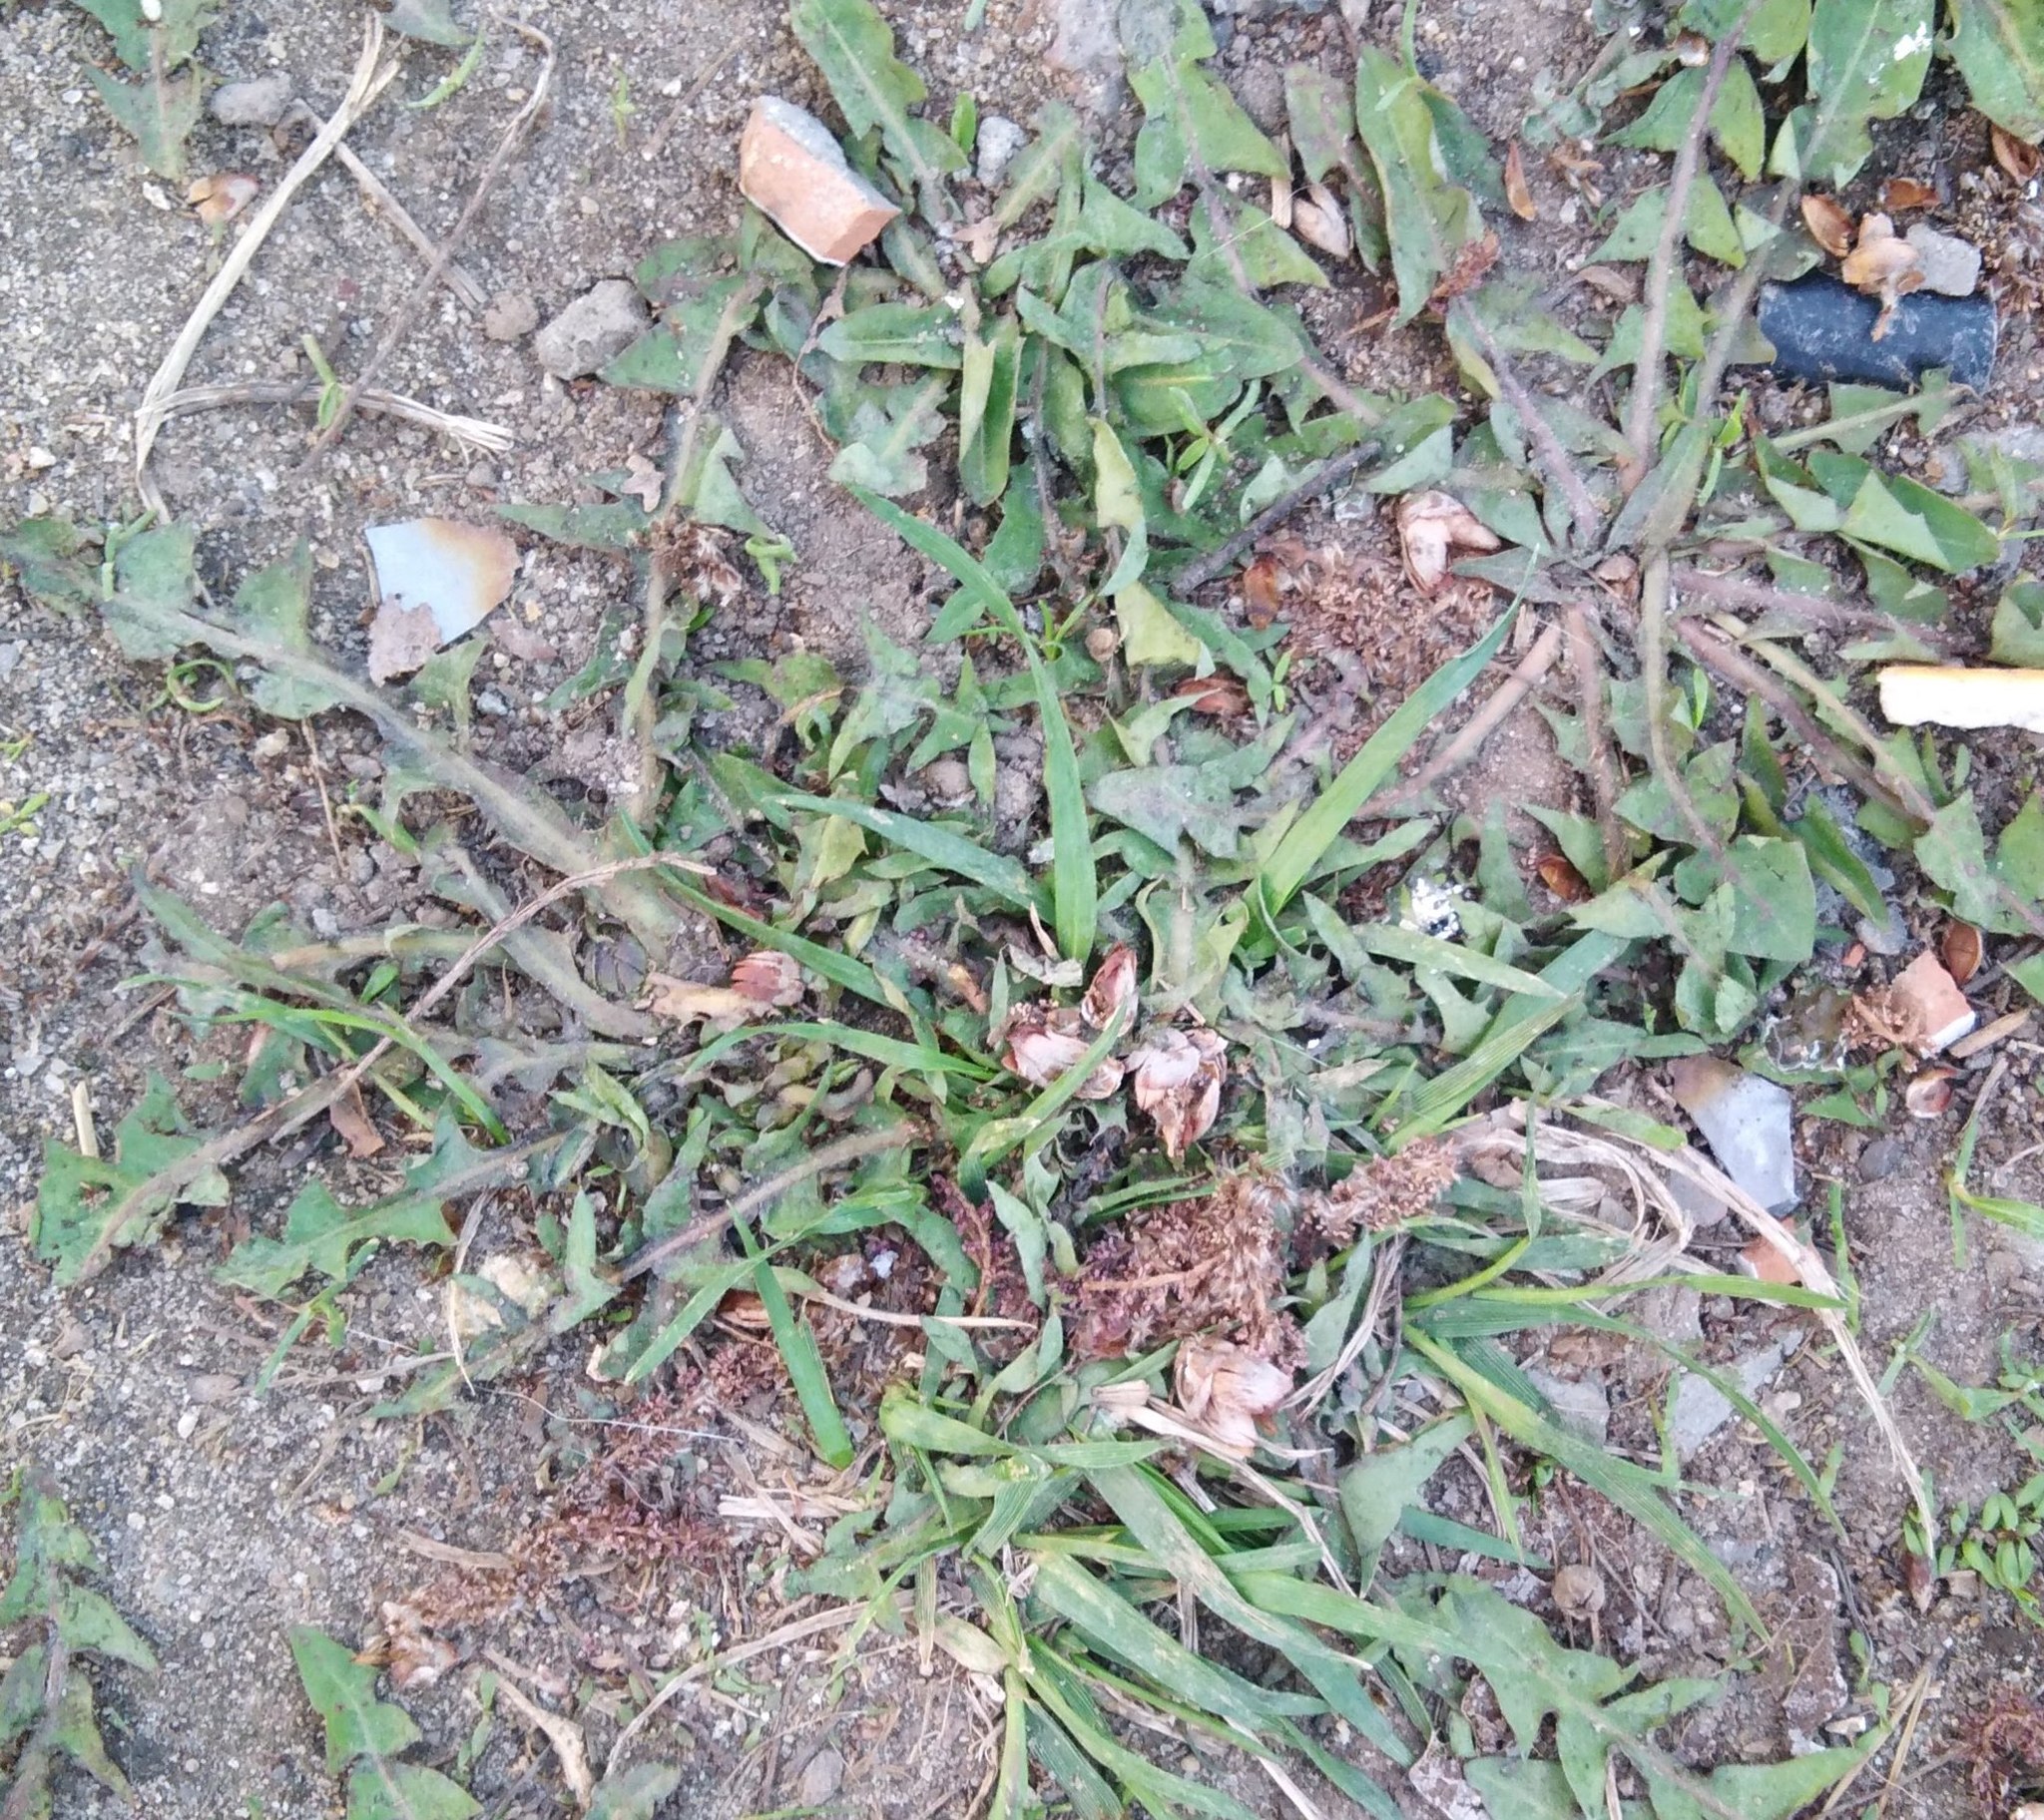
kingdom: Plantae
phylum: Tracheophyta
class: Magnoliopsida
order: Asterales
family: Asteraceae
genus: Taraxacum
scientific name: Taraxacum officinale
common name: Common dandelion
